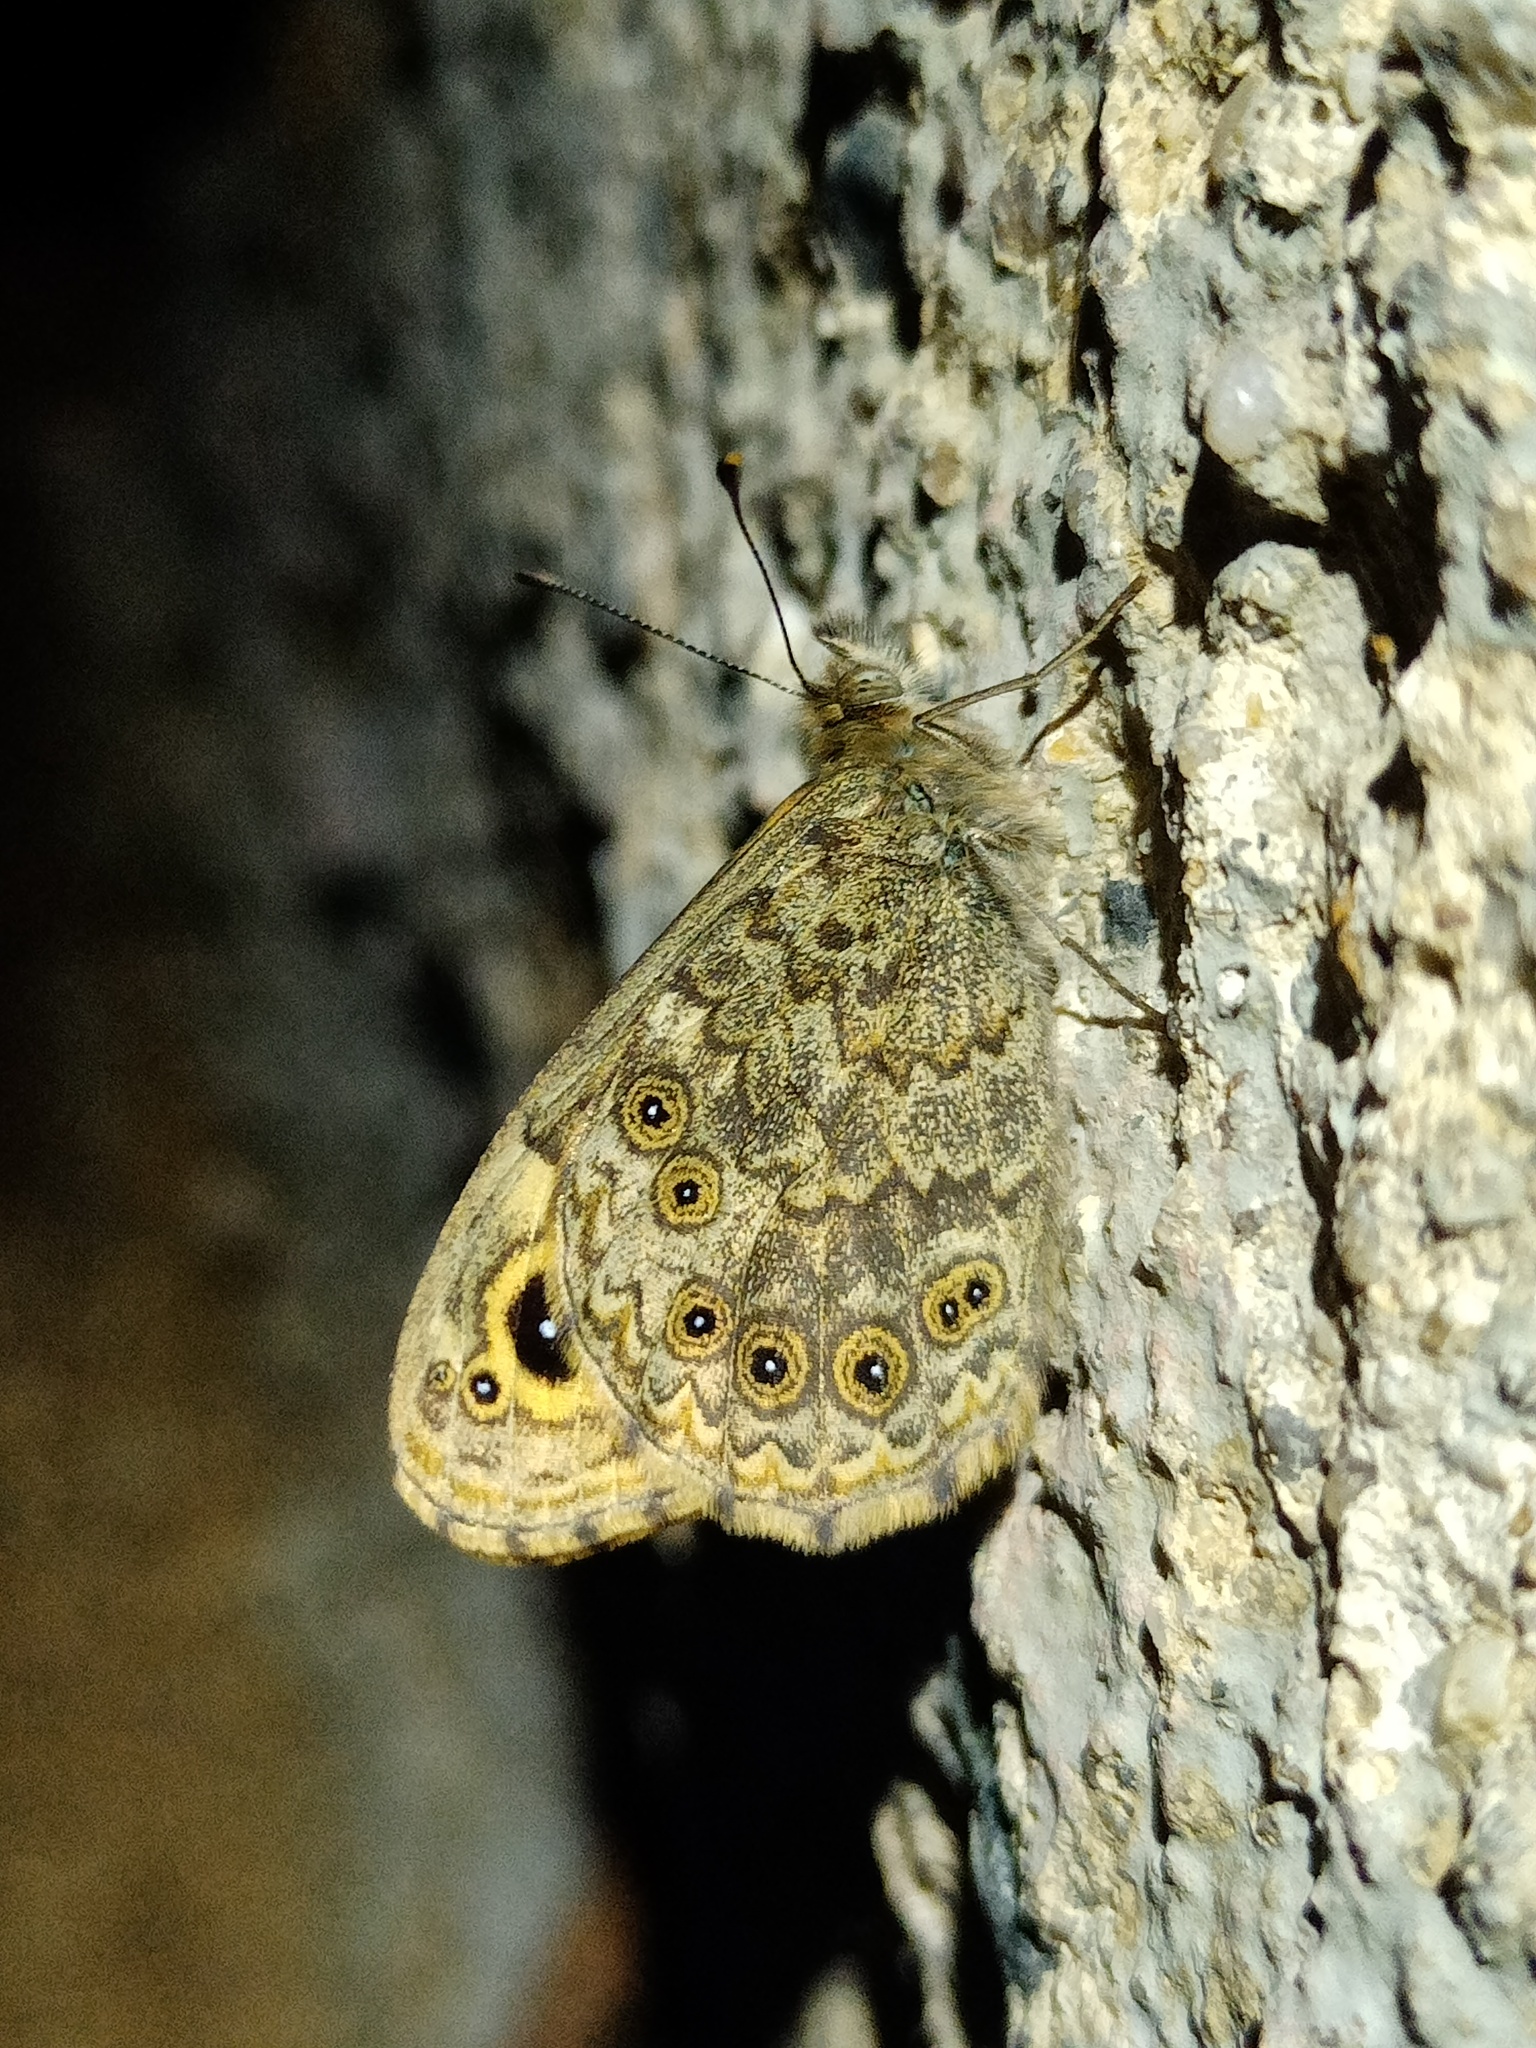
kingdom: Animalia
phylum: Arthropoda
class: Insecta
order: Lepidoptera
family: Nymphalidae
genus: Pararge
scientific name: Pararge Lasiommata megera
